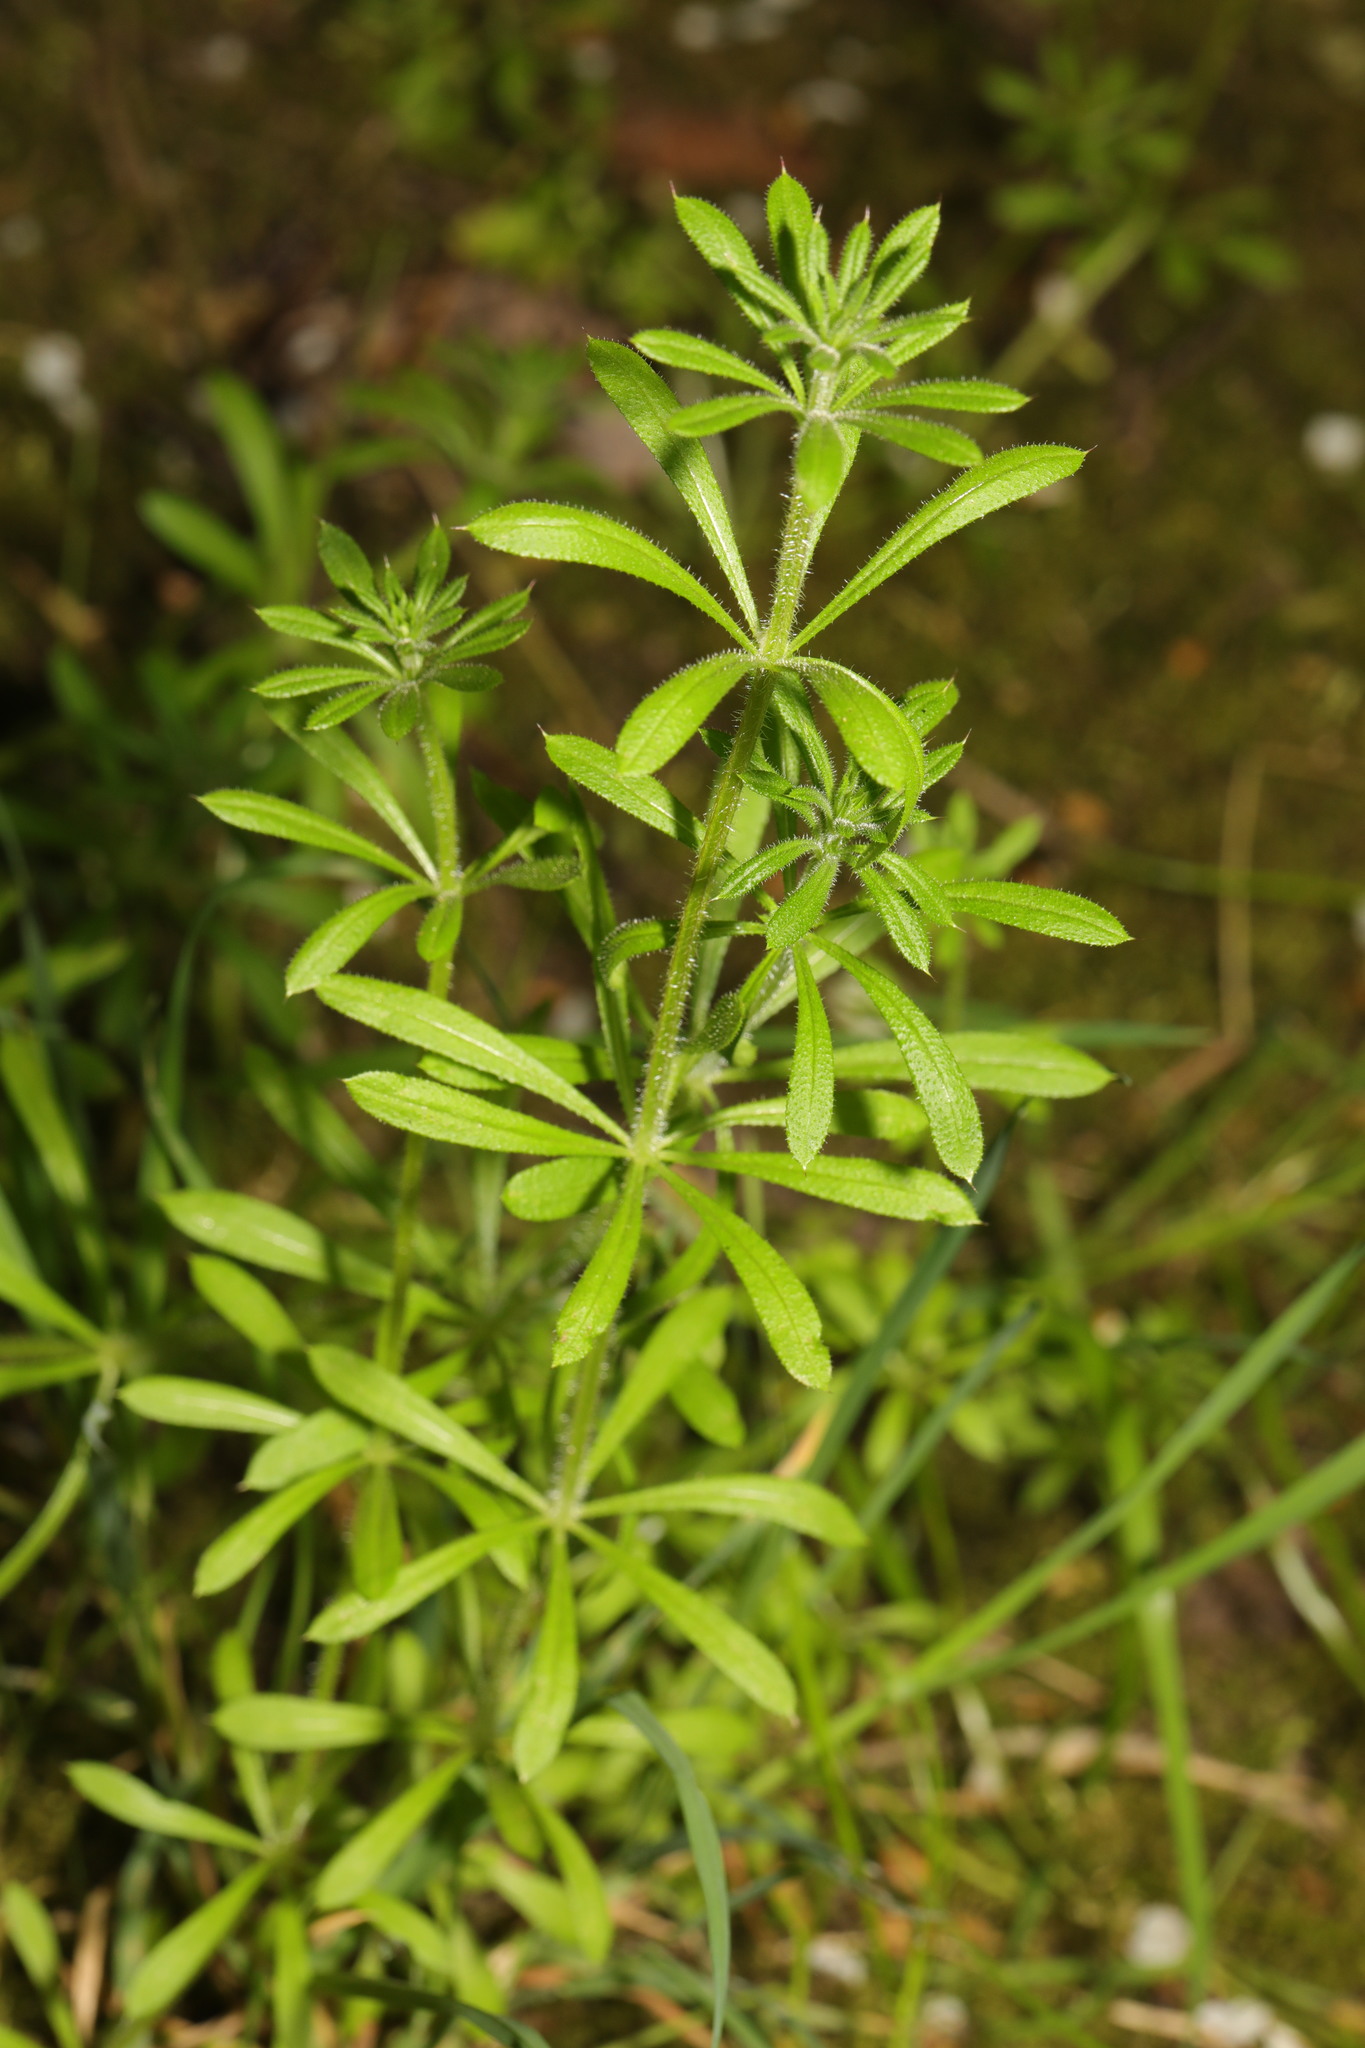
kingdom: Plantae
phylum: Tracheophyta
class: Magnoliopsida
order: Gentianales
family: Rubiaceae
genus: Galium
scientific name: Galium aparine
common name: Cleavers
